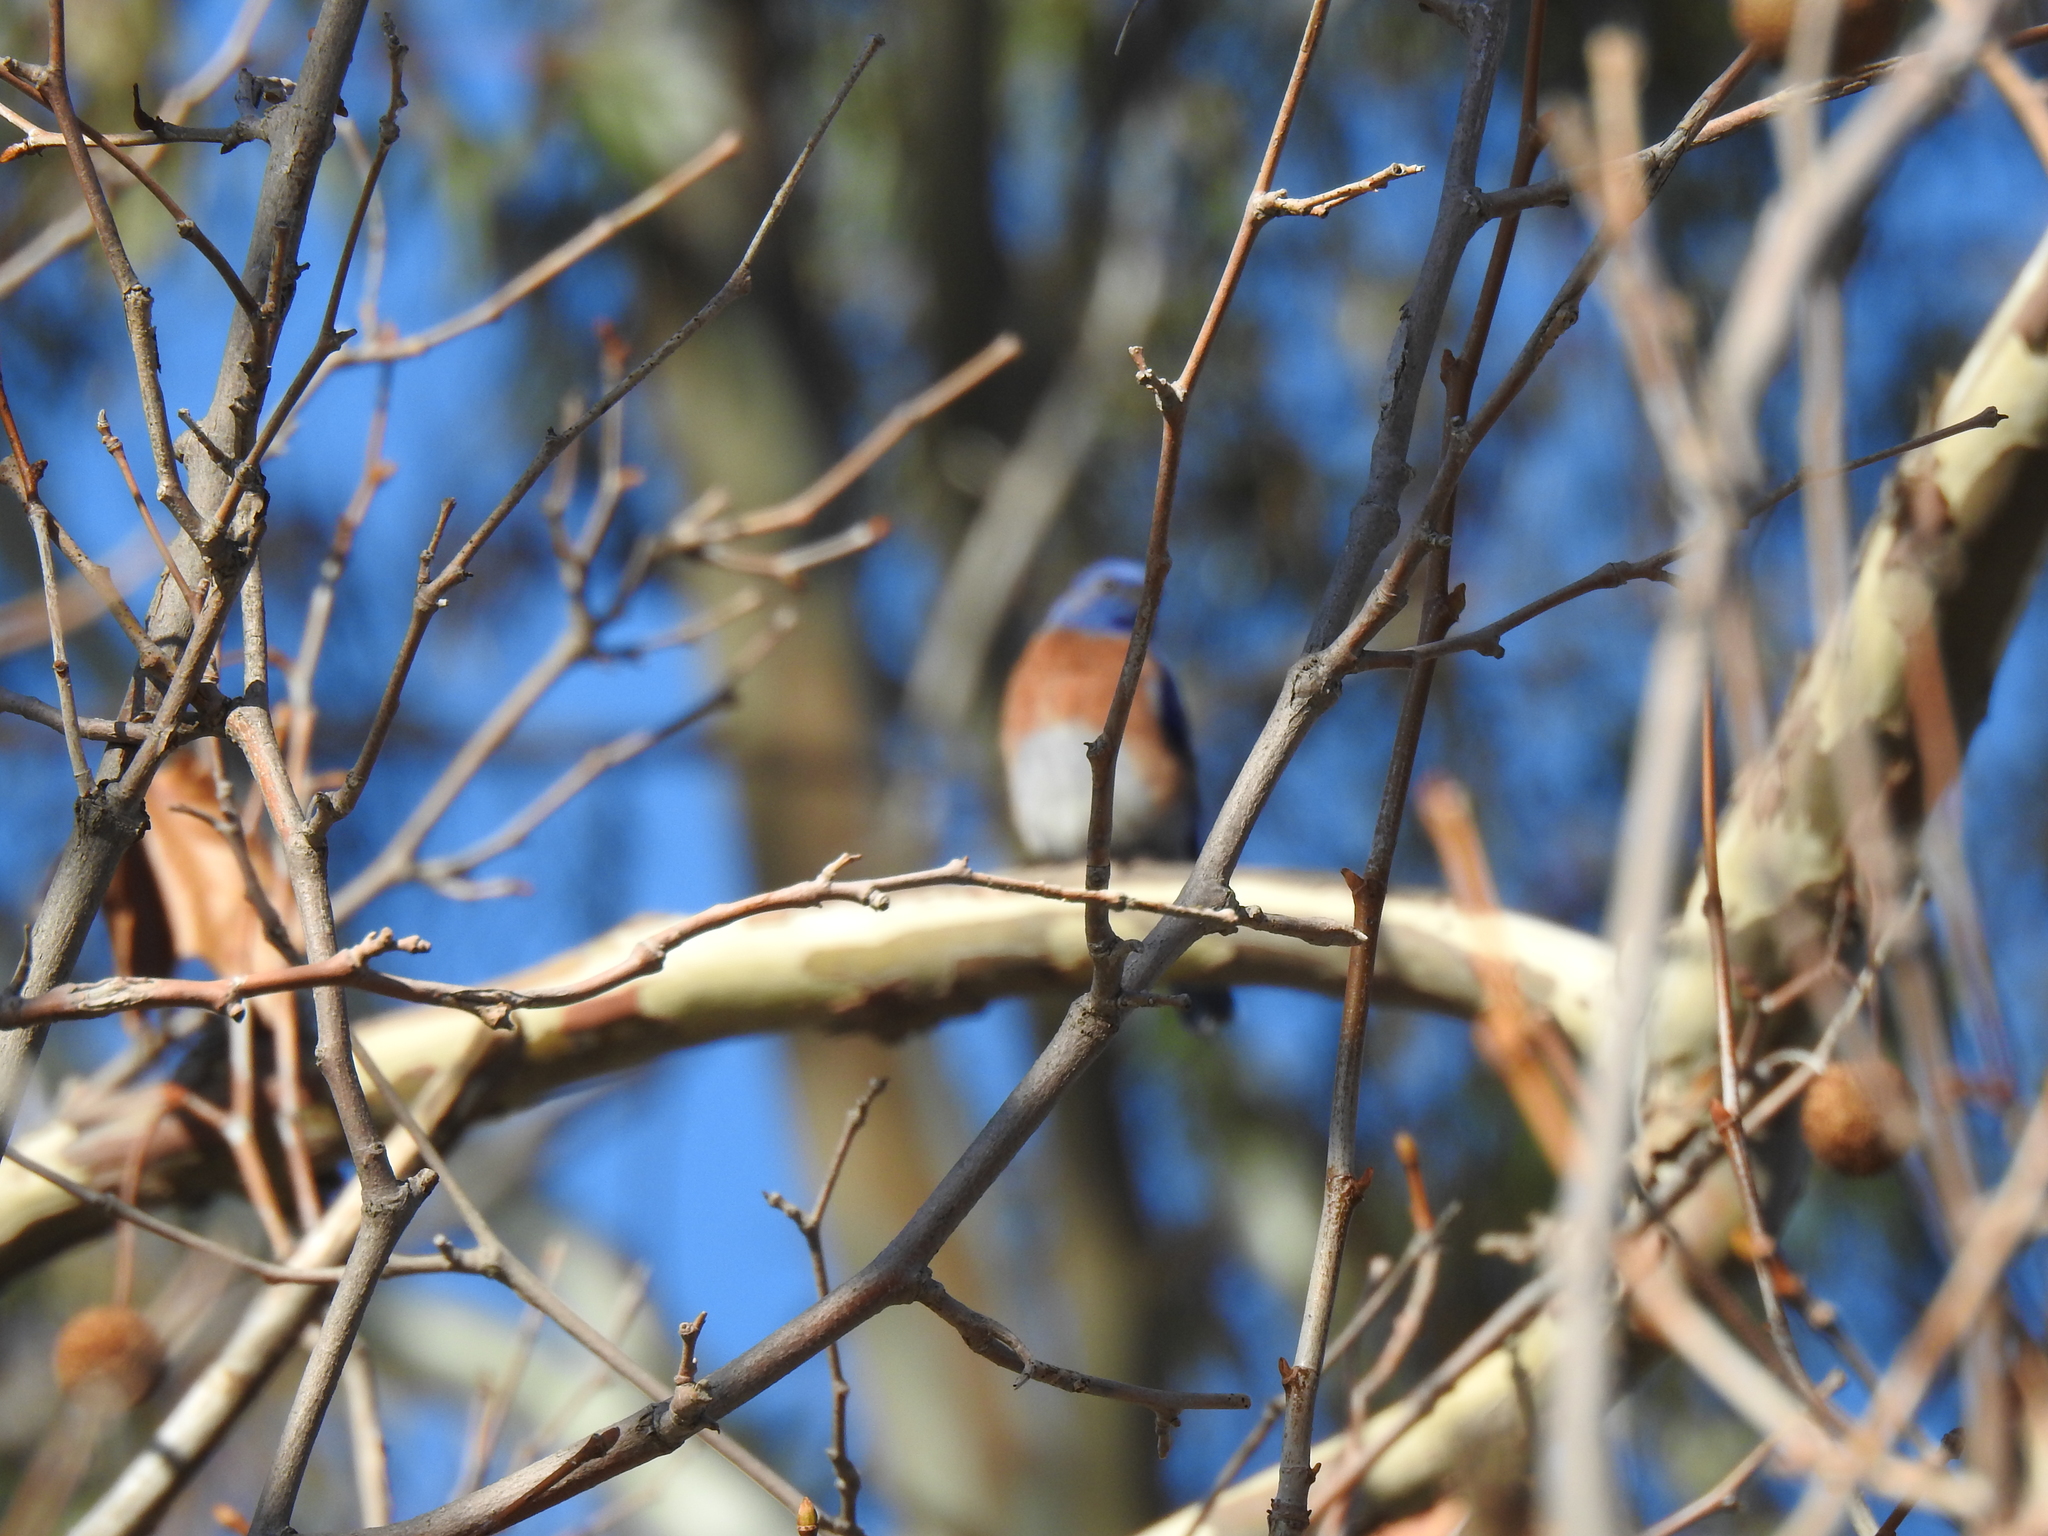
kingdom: Animalia
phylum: Chordata
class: Aves
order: Passeriformes
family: Turdidae
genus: Sialia
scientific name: Sialia mexicana
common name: Western bluebird
